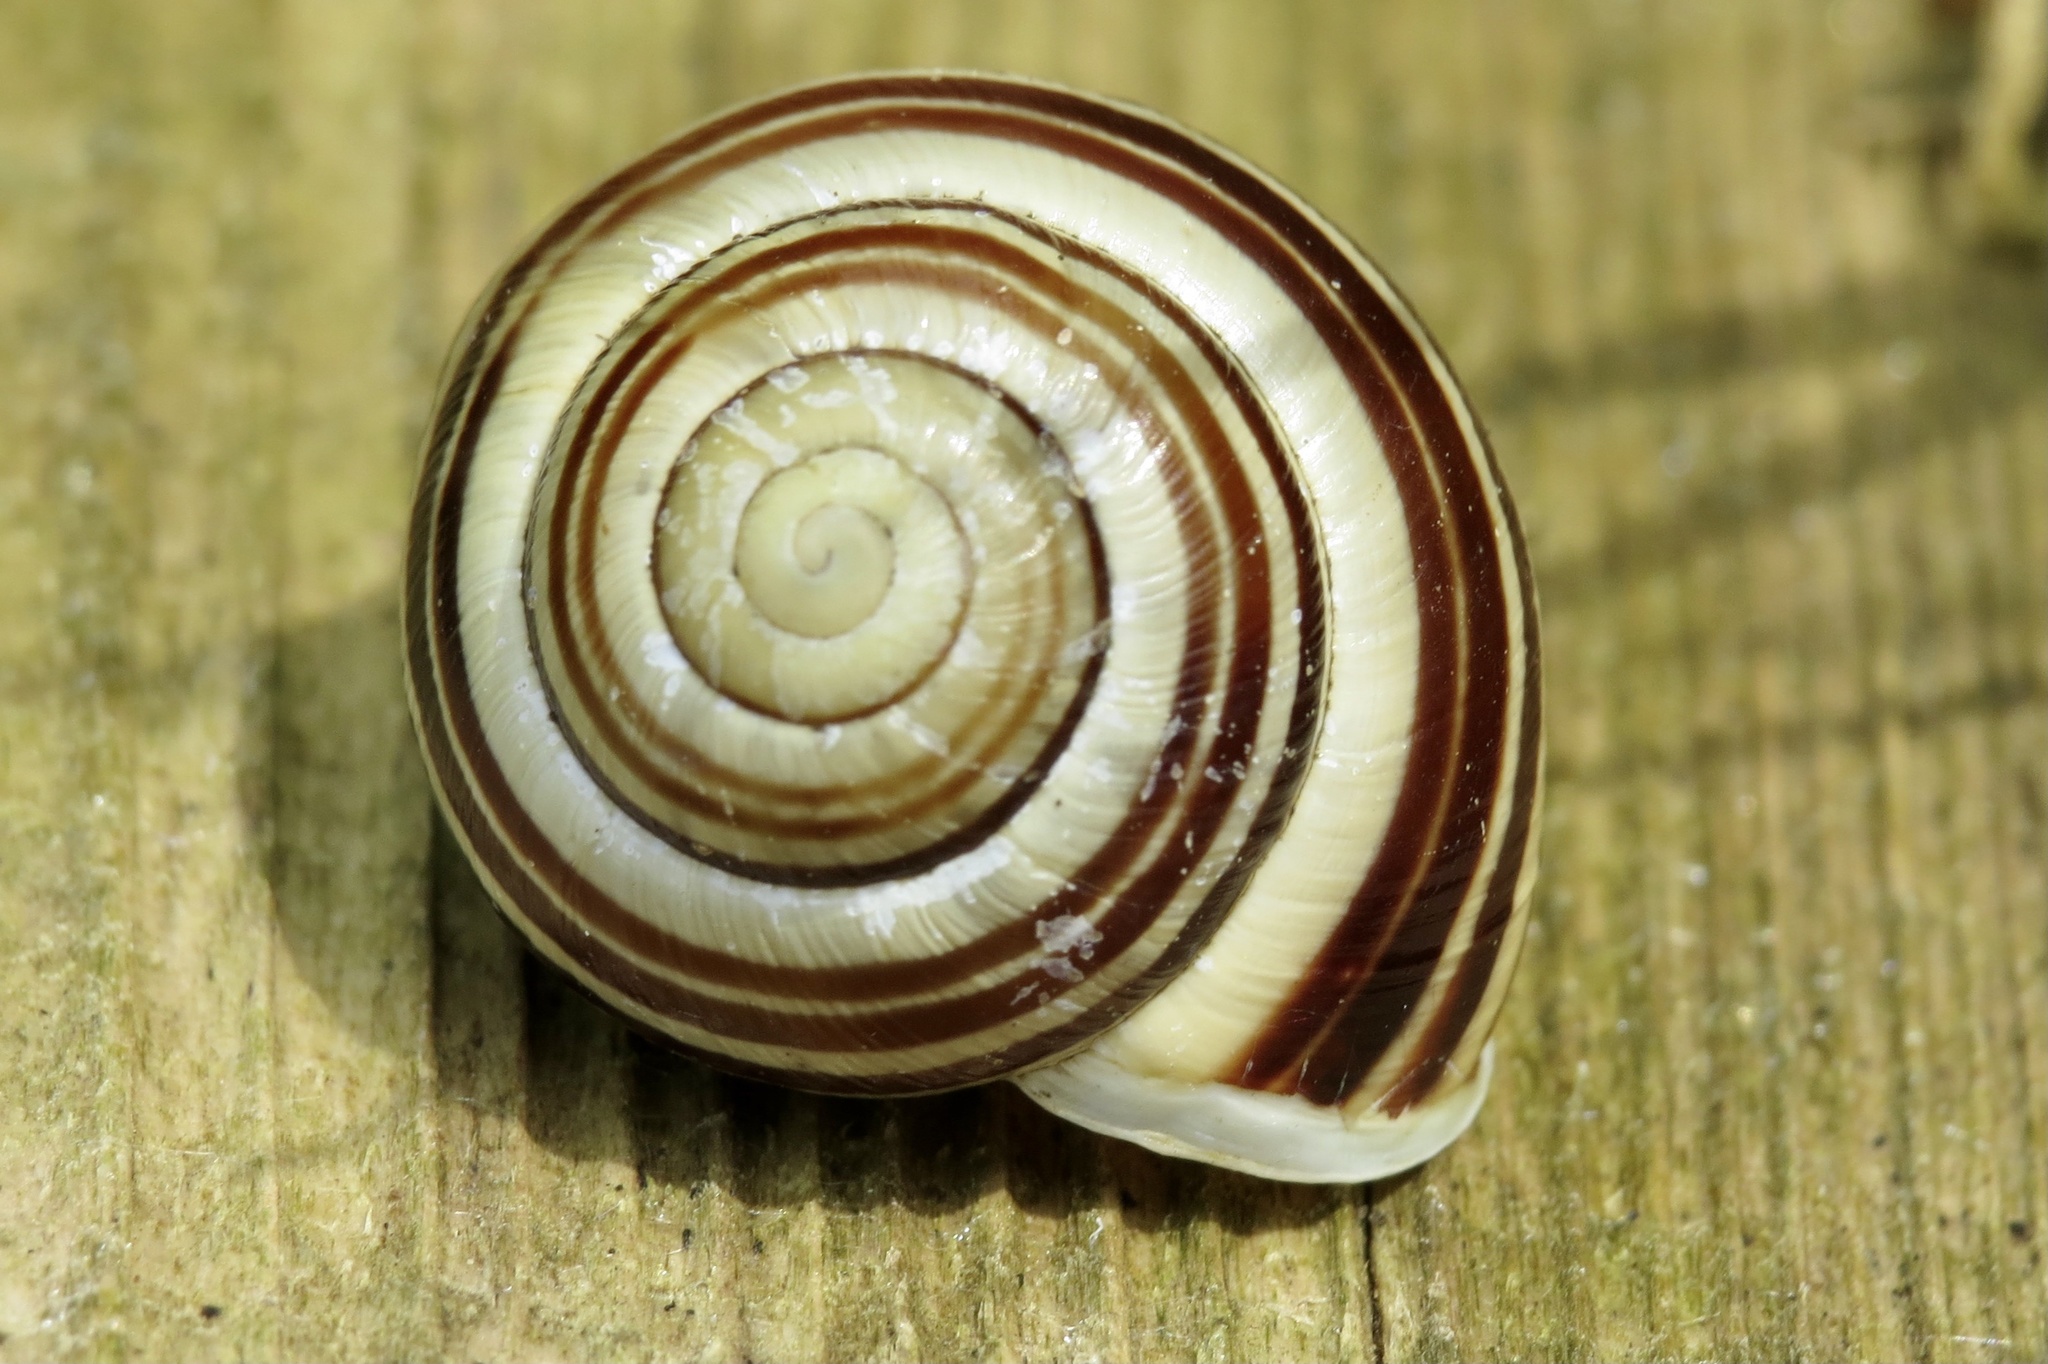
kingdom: Animalia
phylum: Mollusca
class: Gastropoda
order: Stylommatophora
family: Helicidae
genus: Cepaea
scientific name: Cepaea hortensis
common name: White-lip gardensnail
